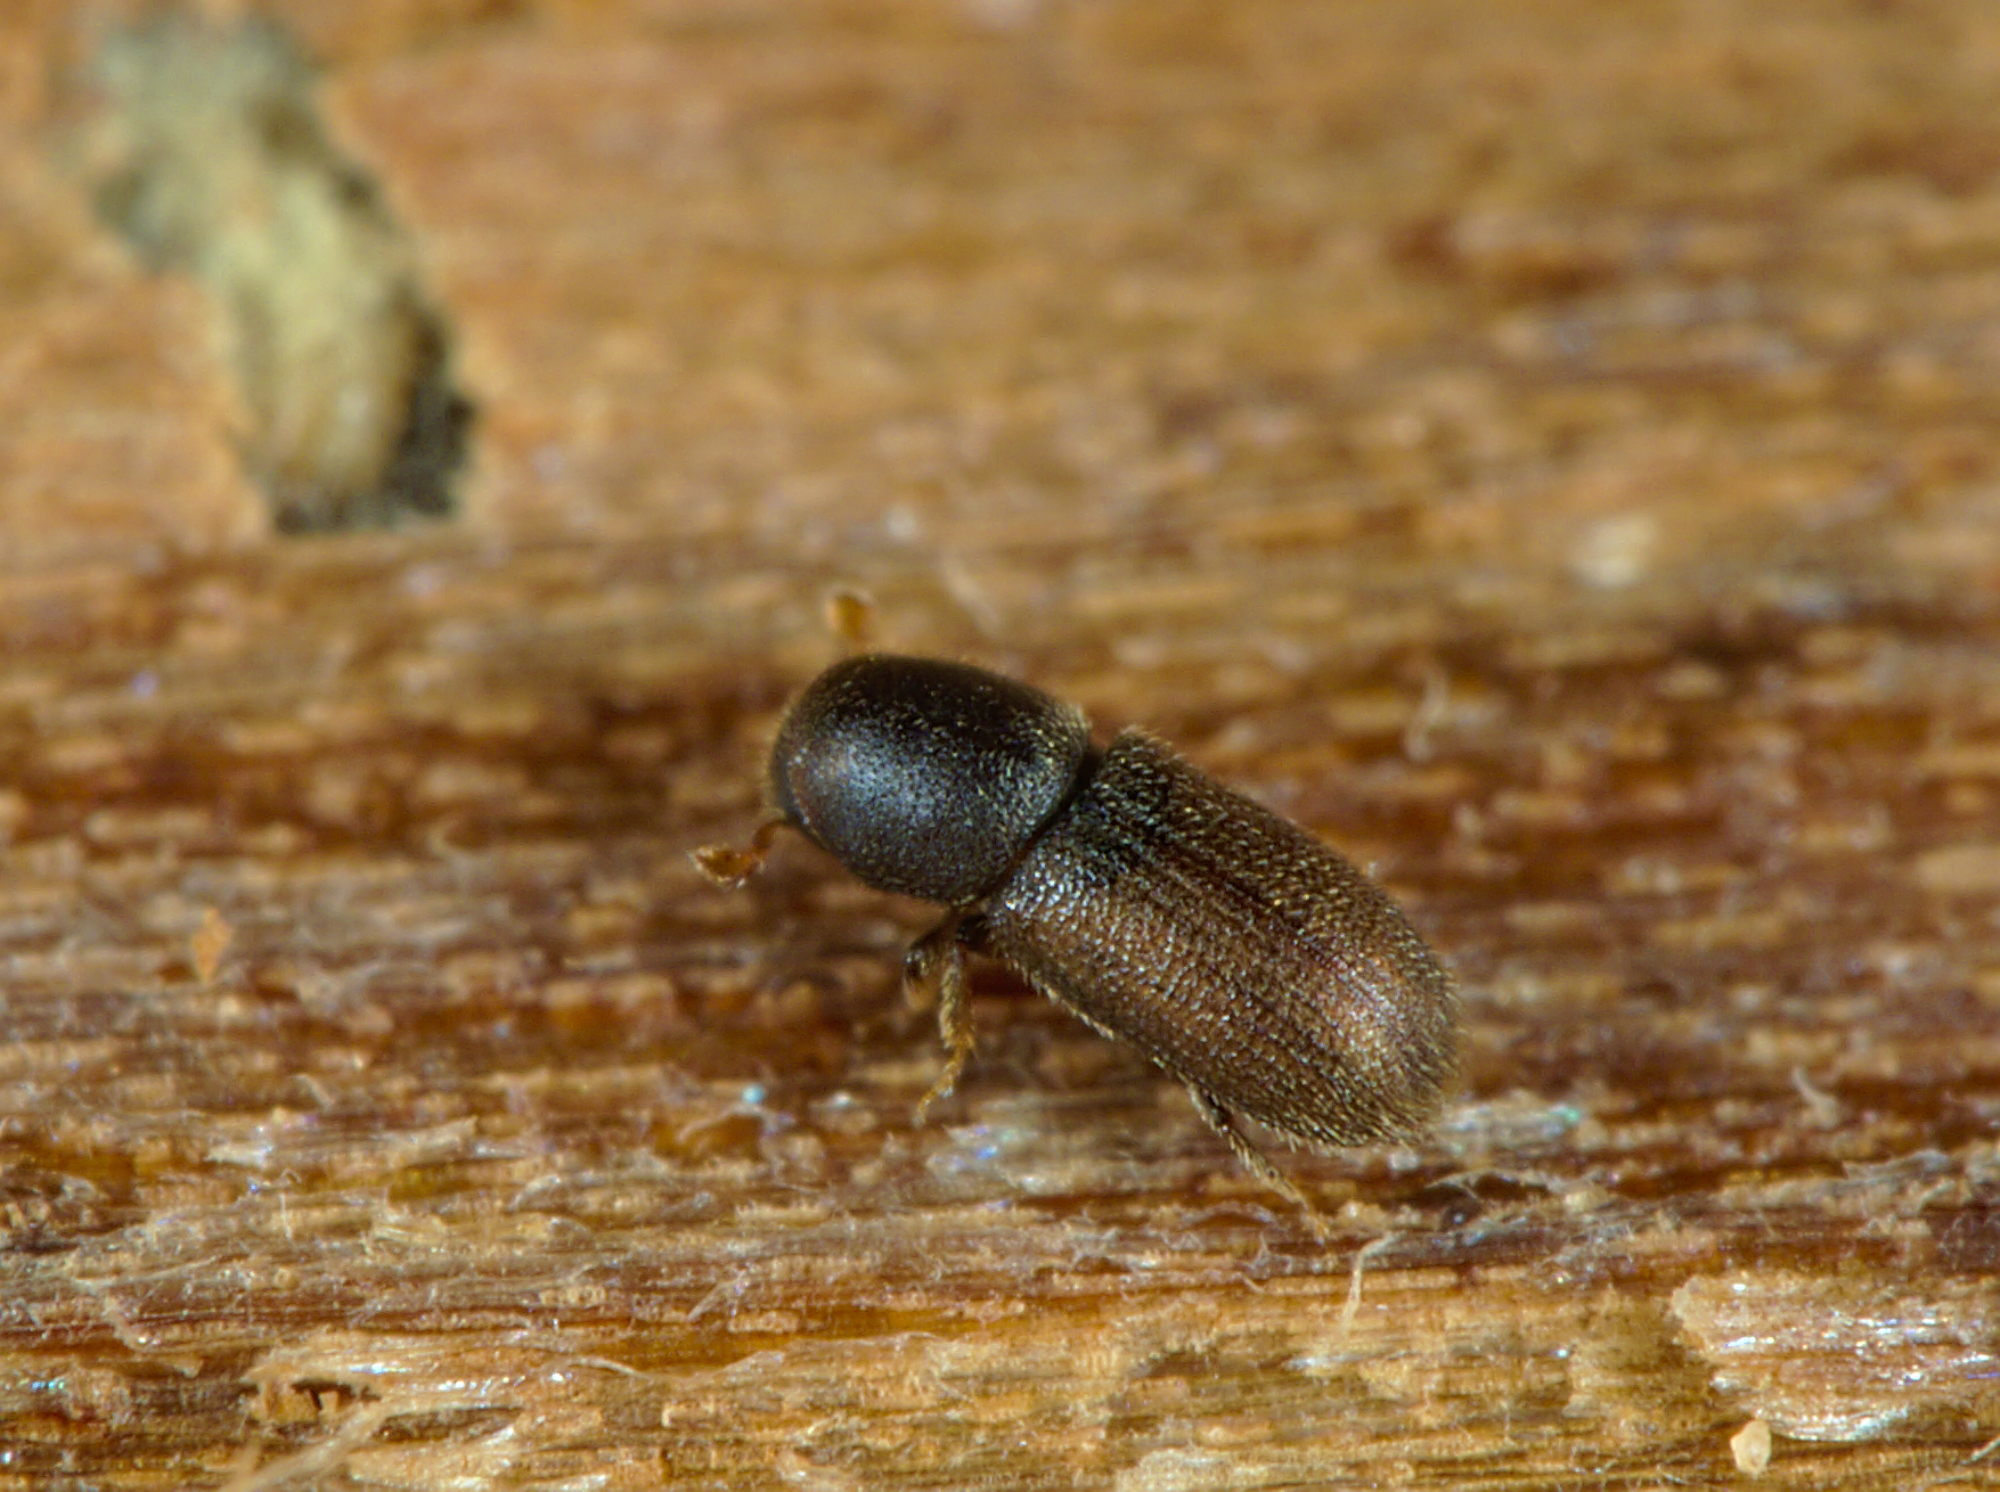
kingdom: Animalia
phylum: Arthropoda
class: Insecta
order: Coleoptera
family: Curculionidae
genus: Crypturgus
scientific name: Crypturgus cinereus
